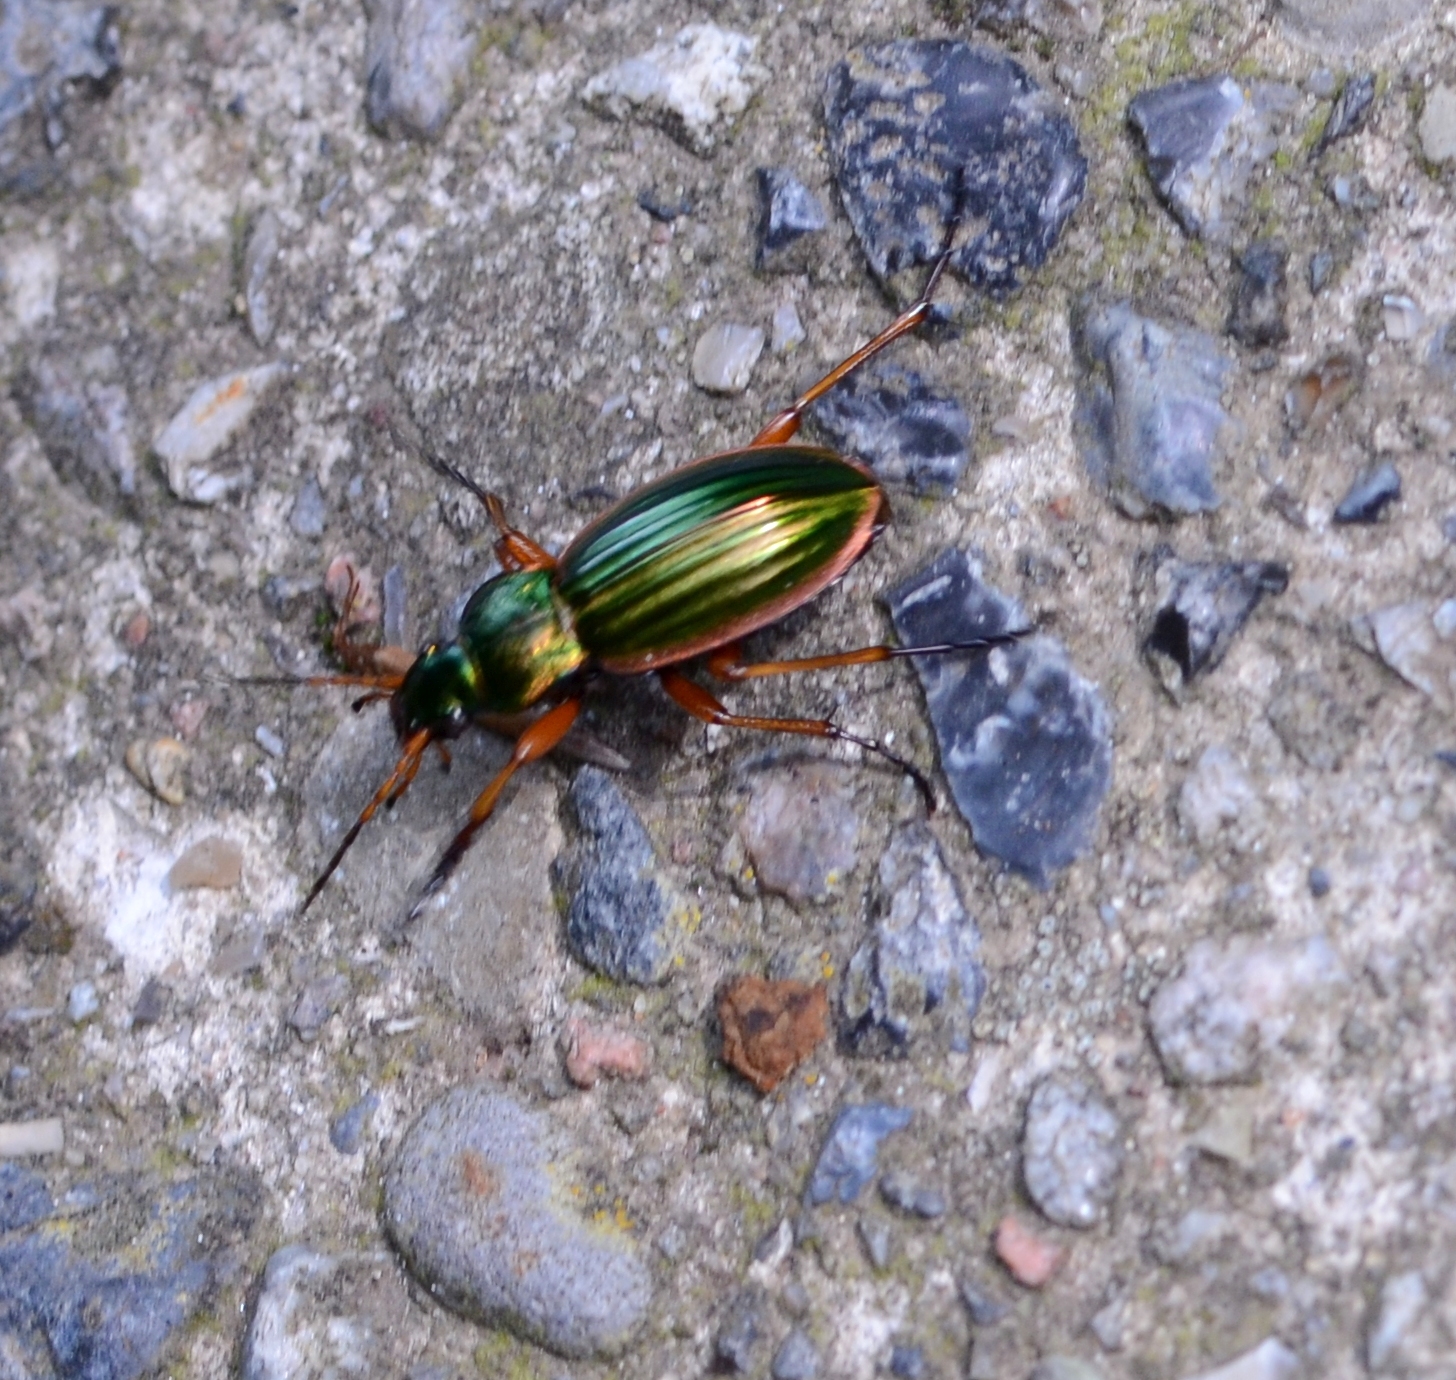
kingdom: Animalia
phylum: Arthropoda
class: Insecta
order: Coleoptera
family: Carabidae
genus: Carabus
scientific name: Carabus auratus
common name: Golden ground beetle
